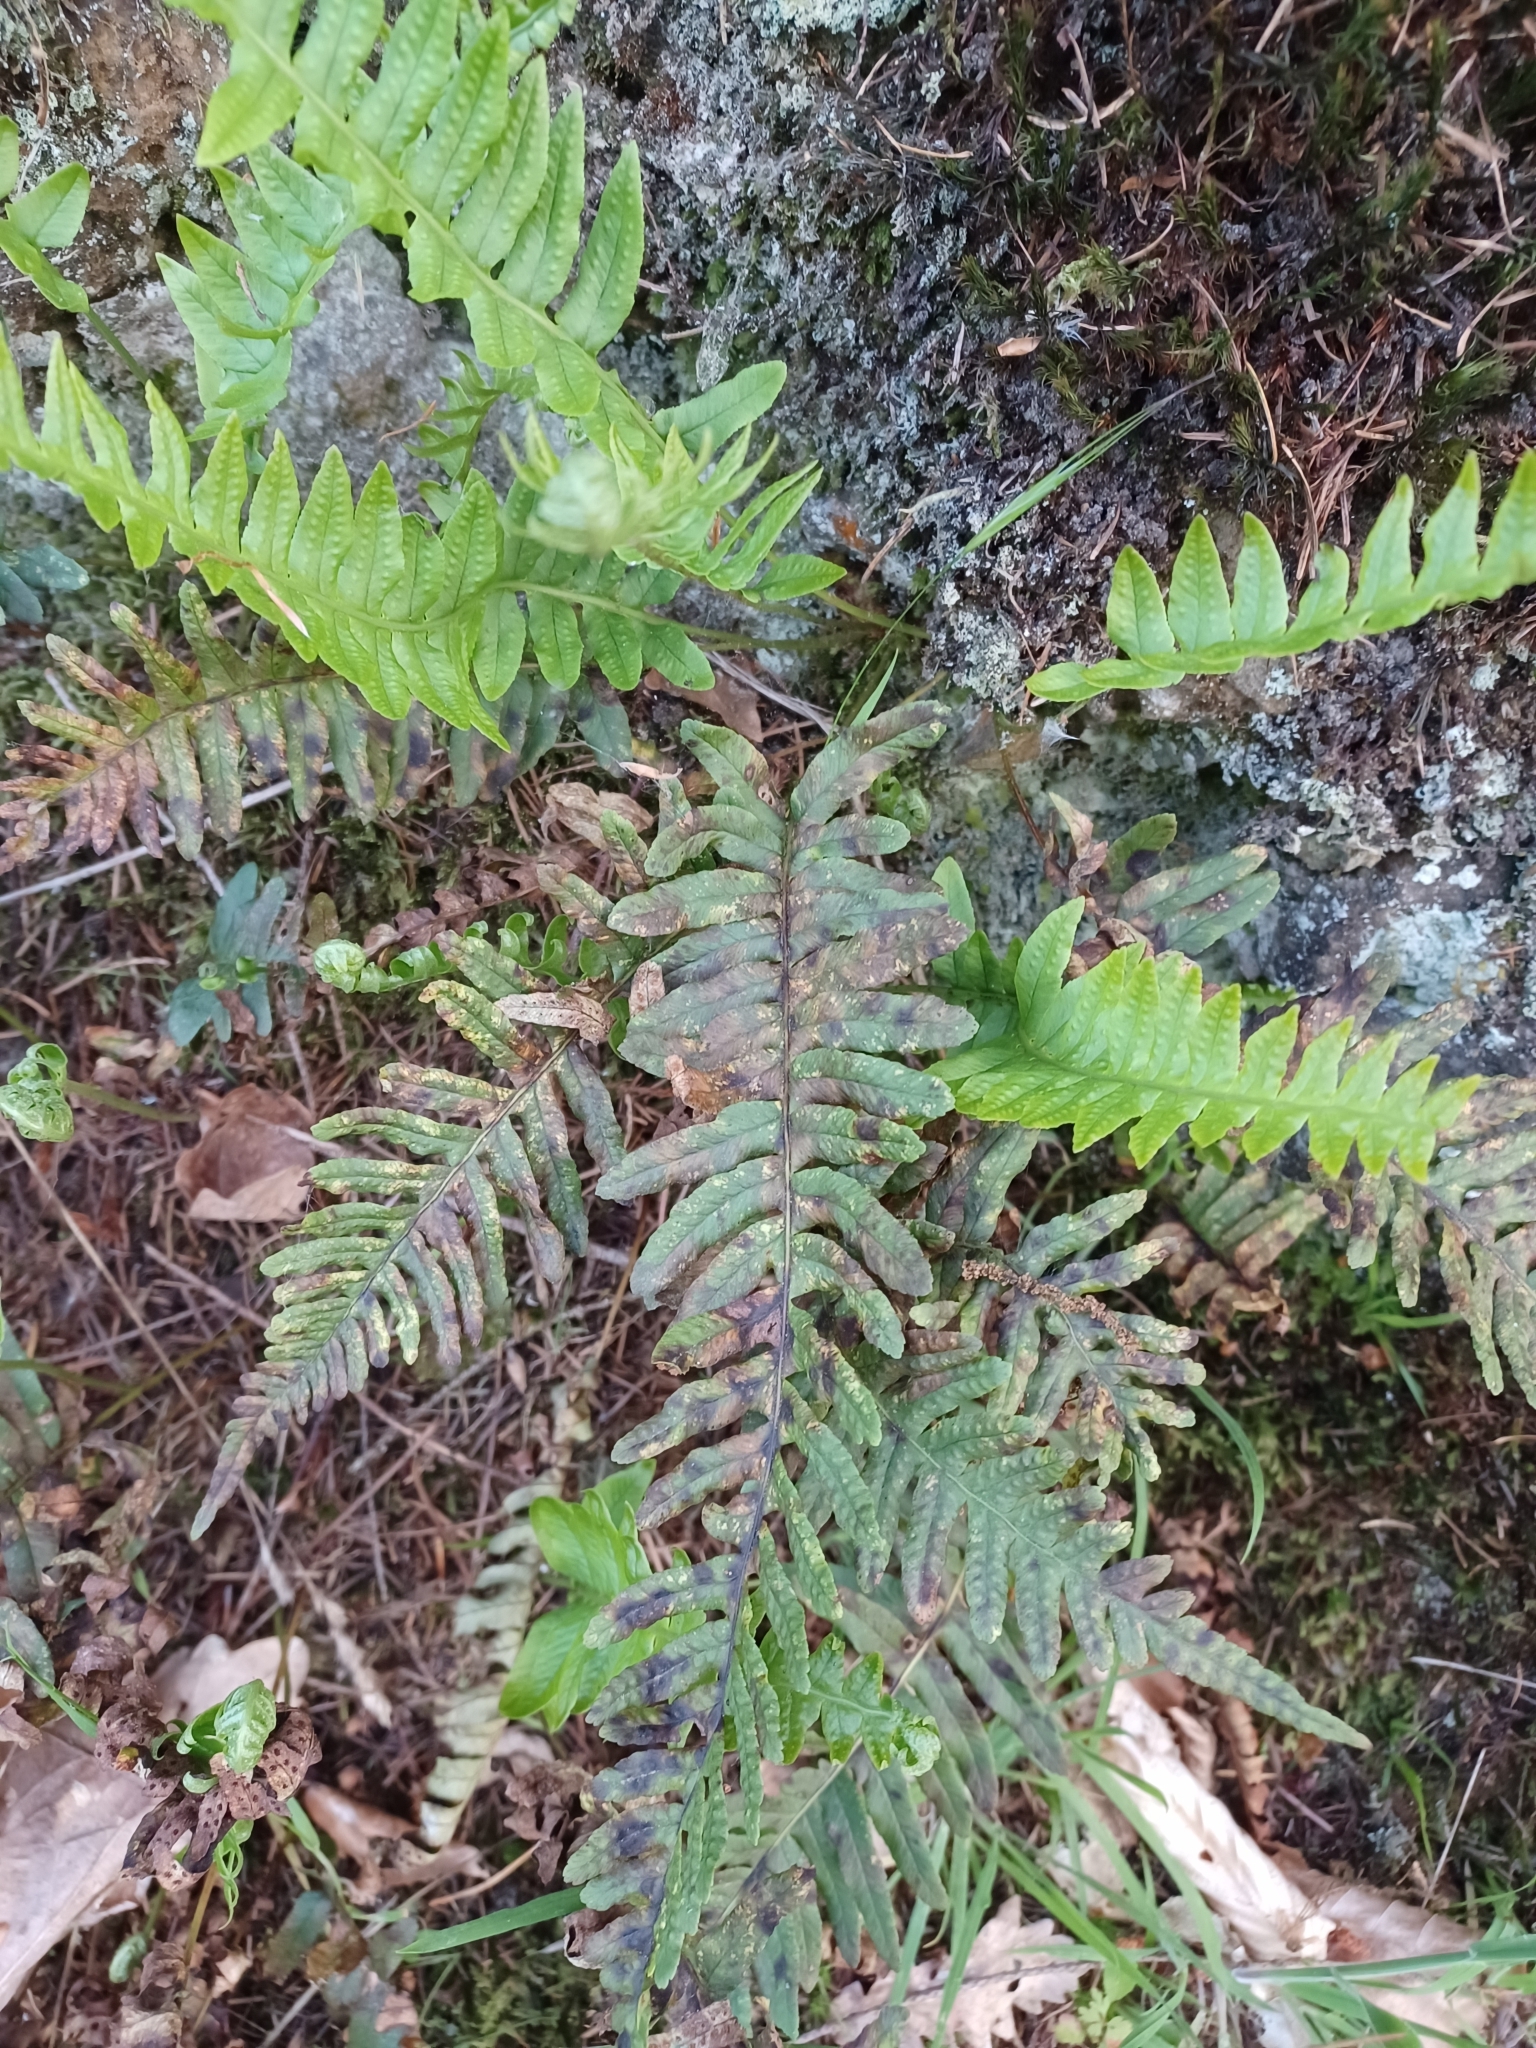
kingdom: Plantae
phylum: Tracheophyta
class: Polypodiopsida
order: Polypodiales
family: Polypodiaceae
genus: Polypodium
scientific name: Polypodium vulgare
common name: Common polypody
